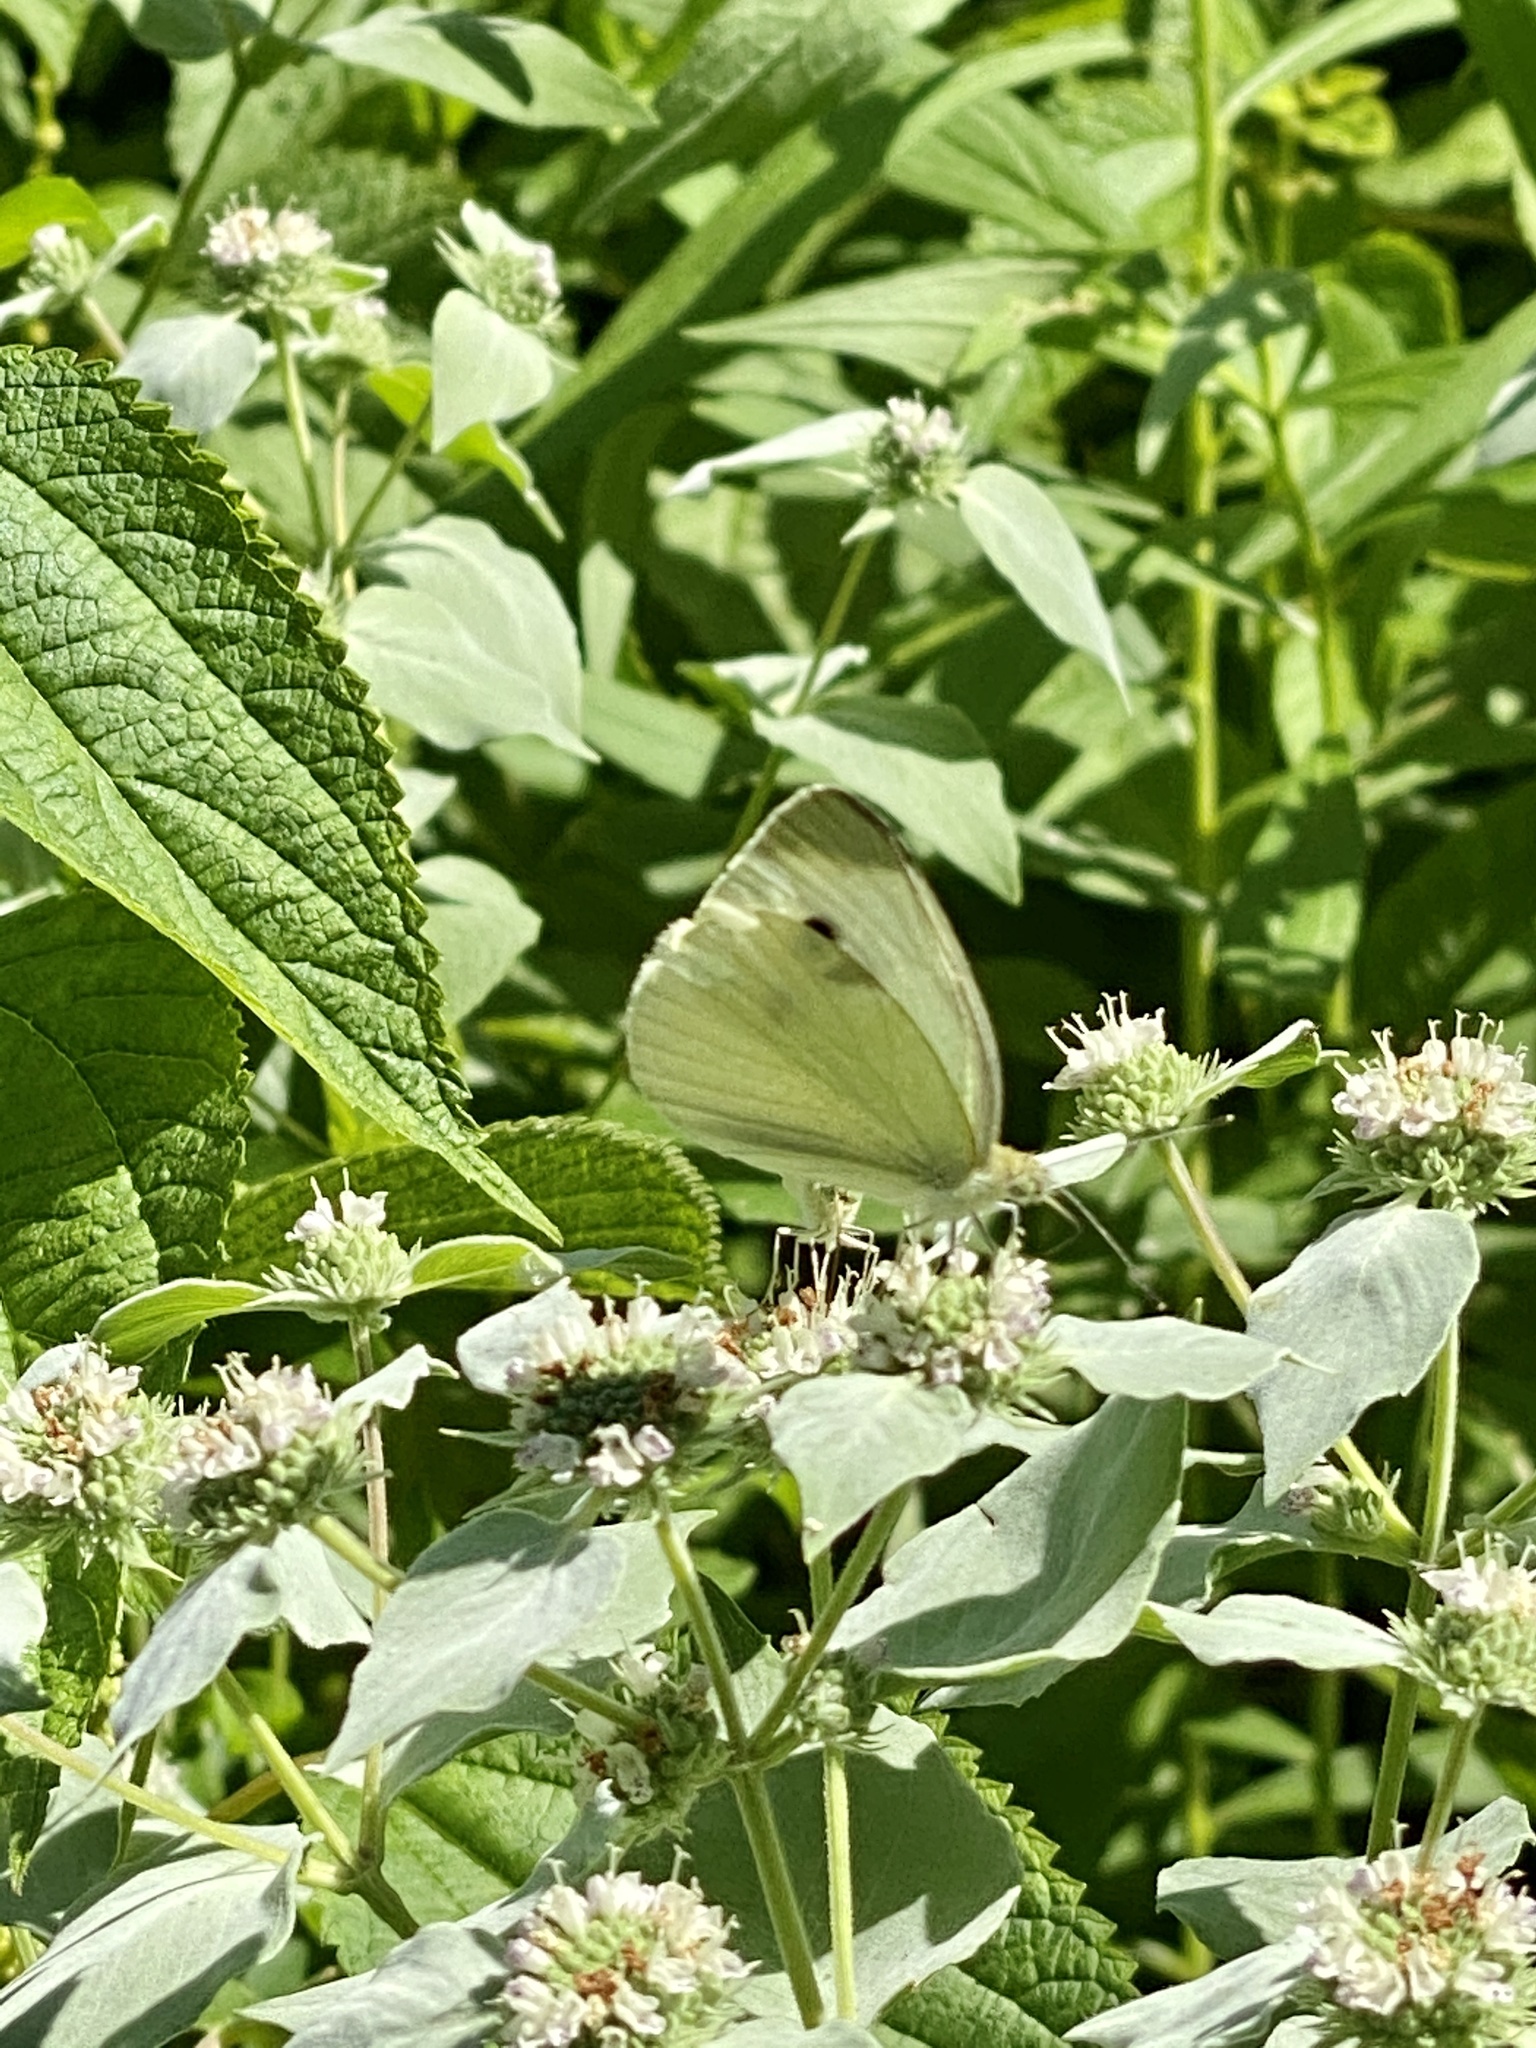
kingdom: Animalia
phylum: Arthropoda
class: Insecta
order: Lepidoptera
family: Pieridae
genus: Pieris
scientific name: Pieris rapae
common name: Small white
